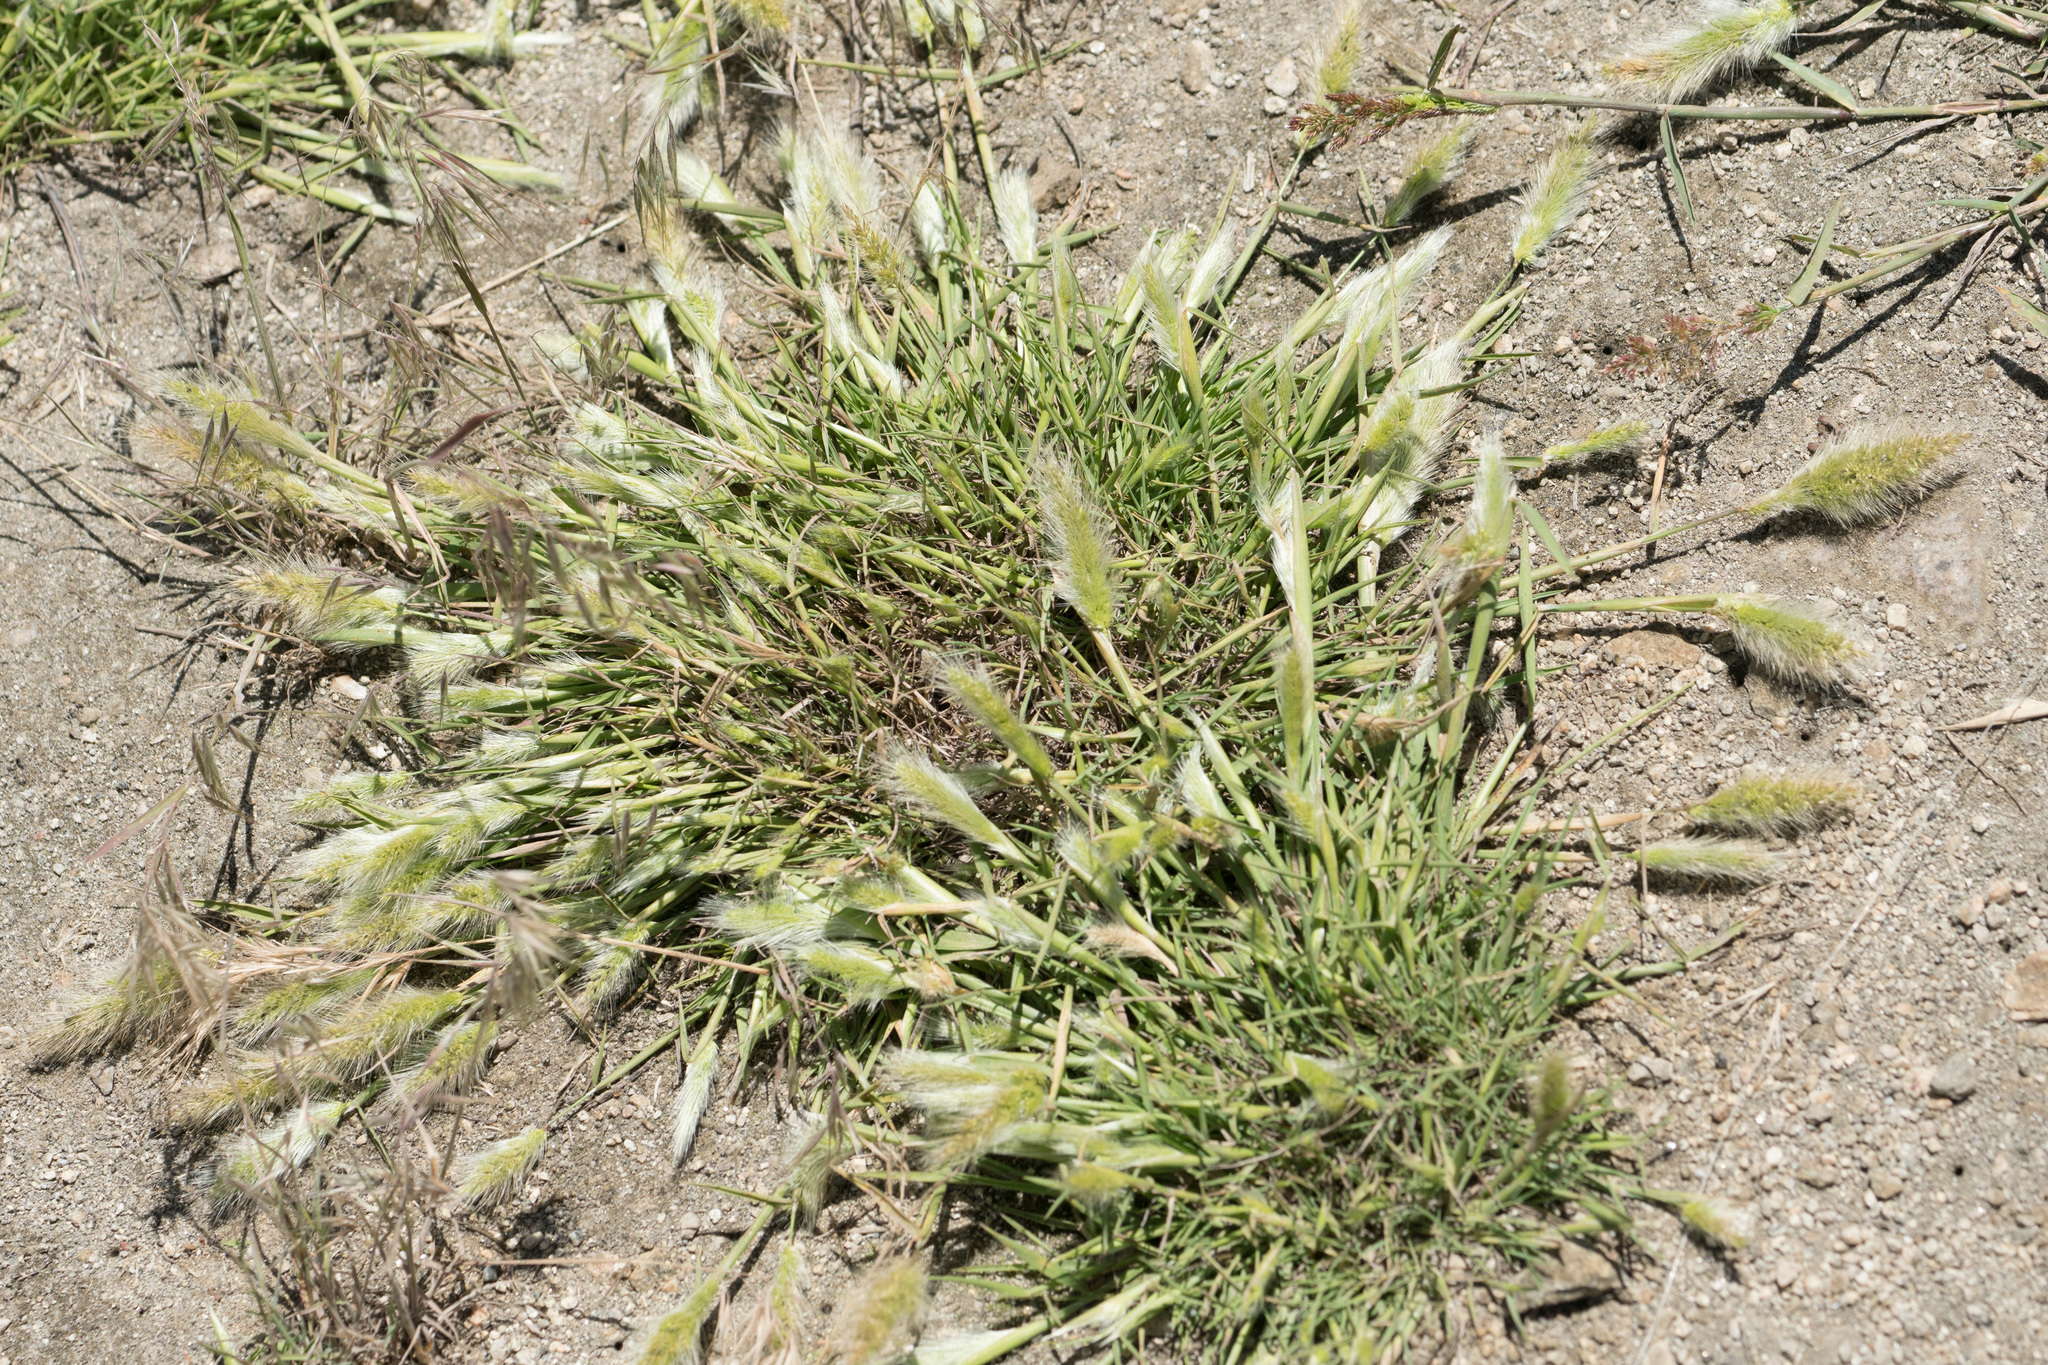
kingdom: Plantae
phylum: Tracheophyta
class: Liliopsida
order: Poales
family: Poaceae
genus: Polypogon
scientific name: Polypogon monspeliensis
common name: Annual rabbitsfoot grass
